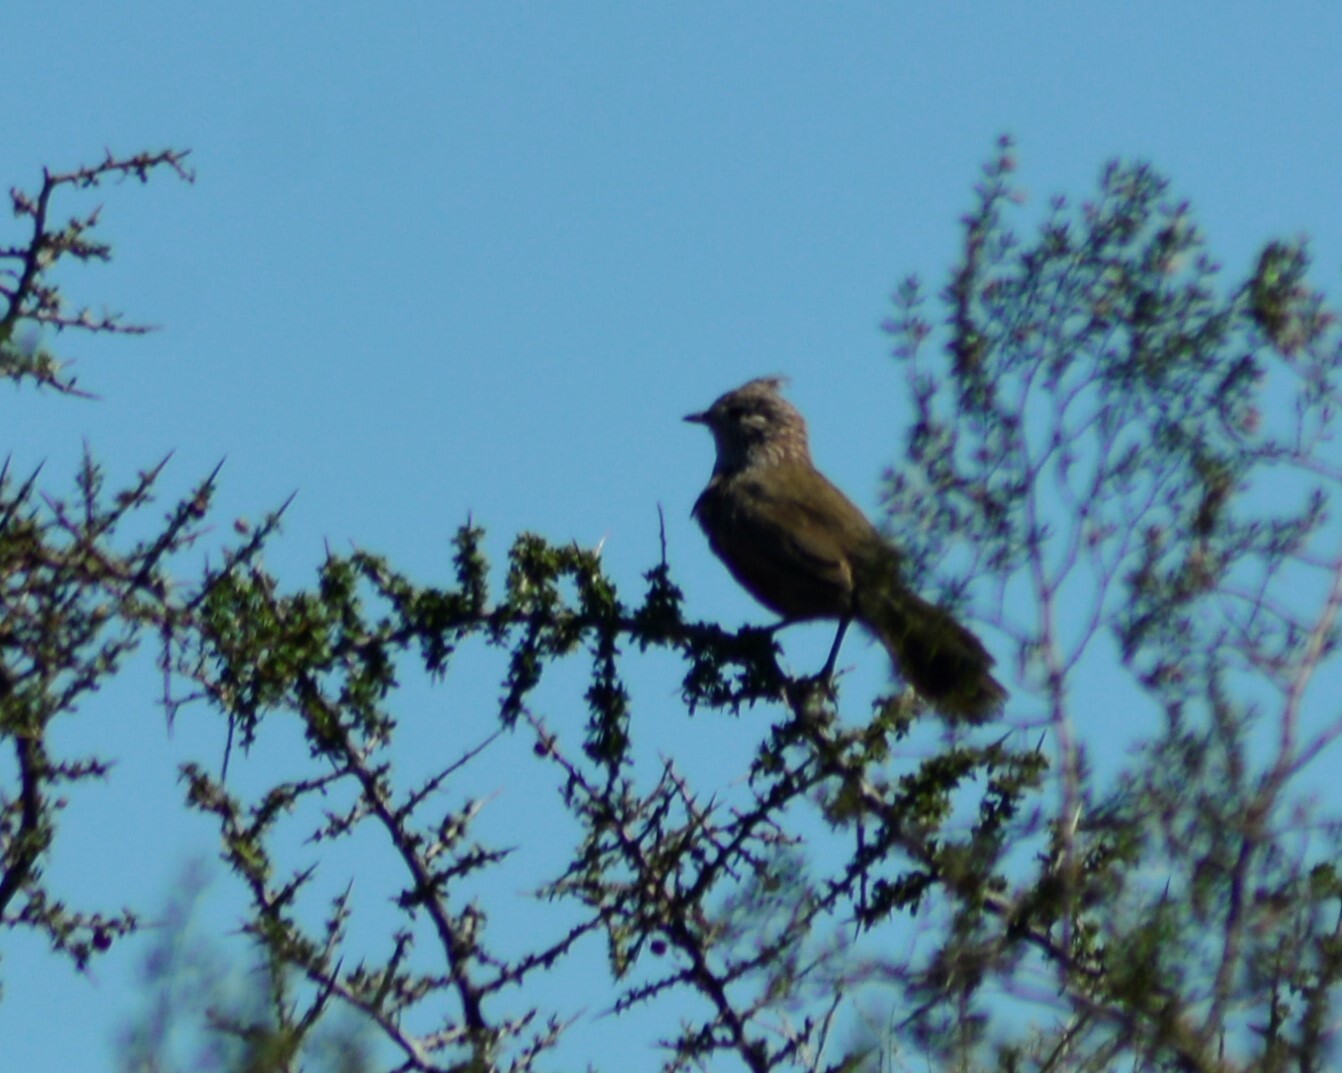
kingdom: Animalia
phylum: Chordata
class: Aves
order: Passeriformes
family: Rhinocryptidae
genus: Rhinocrypta
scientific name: Rhinocrypta lanceolata
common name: Crested gallito
